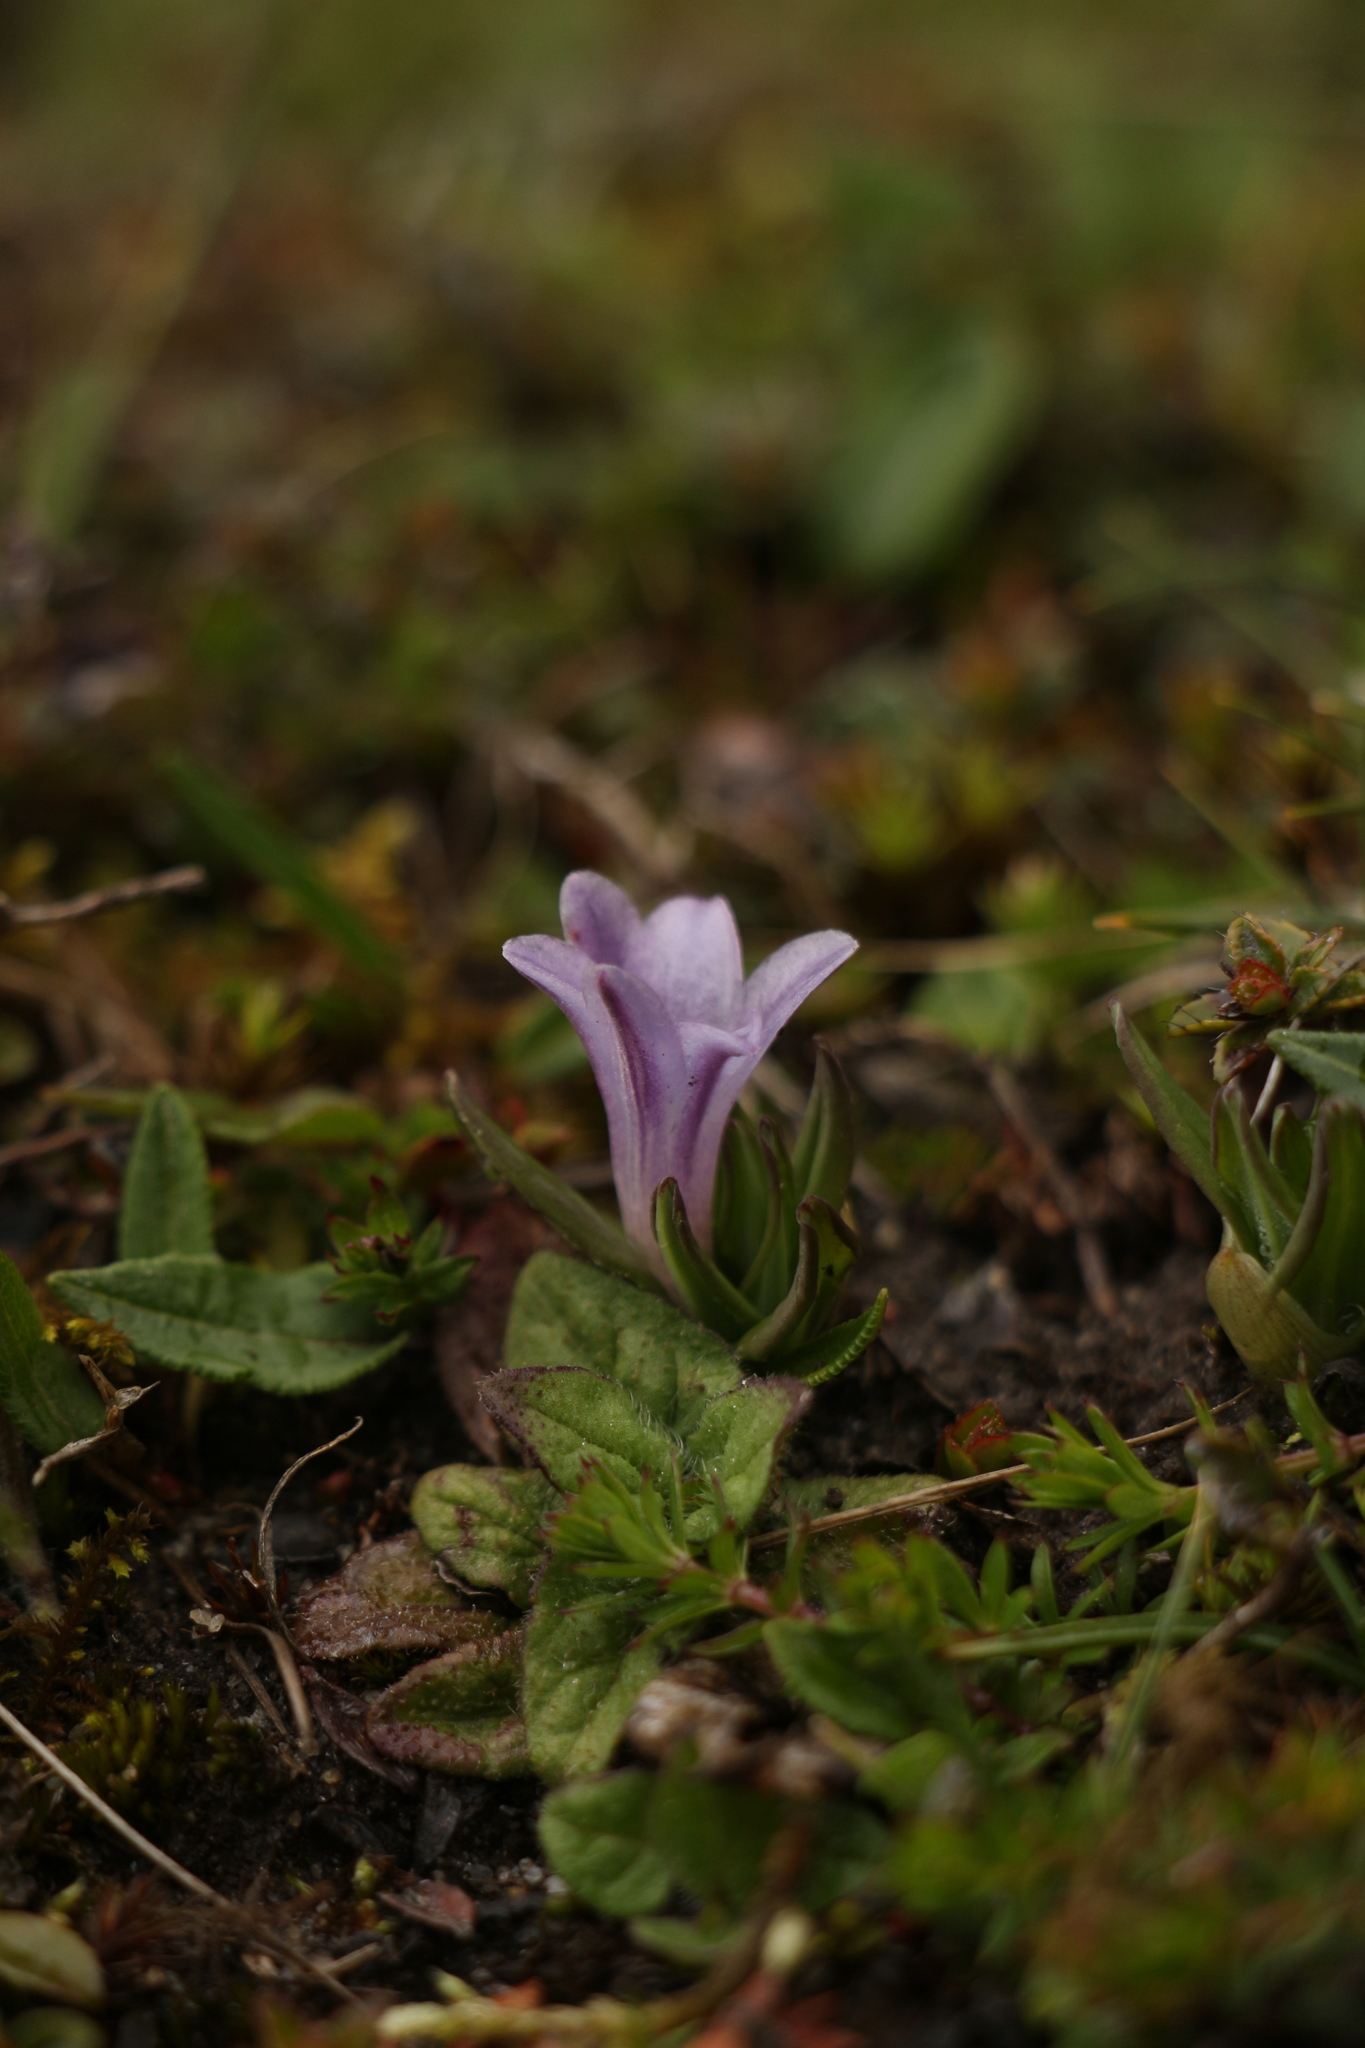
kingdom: Plantae
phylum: Tracheophyta
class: Liliopsida
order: Asparagales
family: Asparagaceae
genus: Polygonatum
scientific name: Polygonatum hookeri
